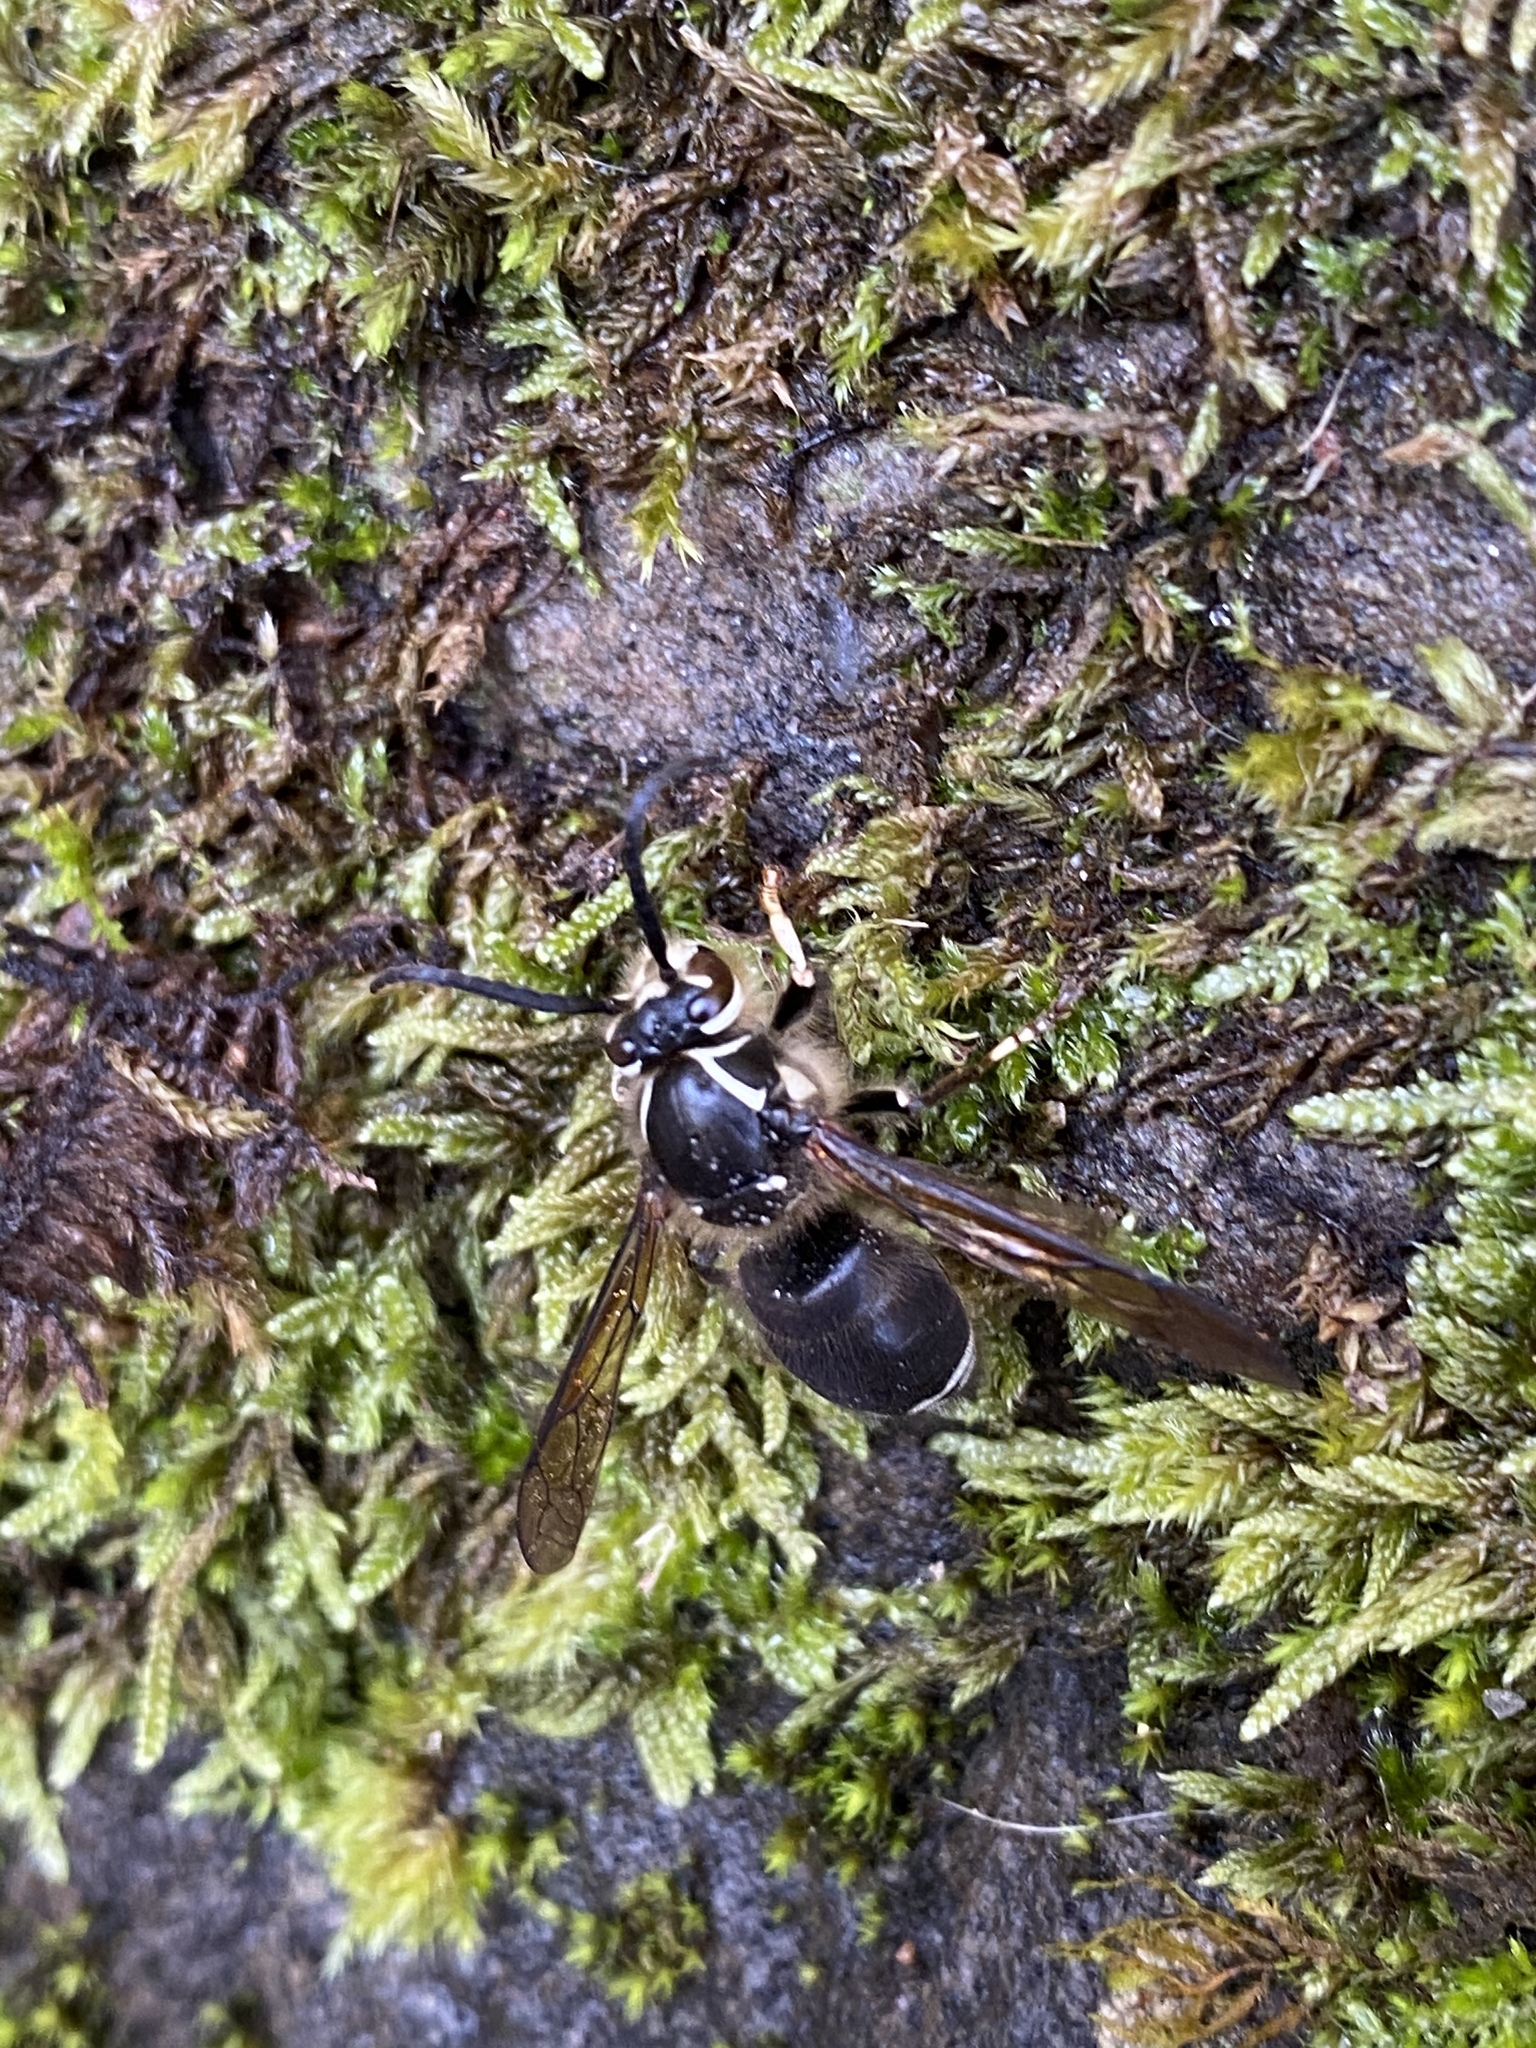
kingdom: Animalia
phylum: Arthropoda
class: Insecta
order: Hymenoptera
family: Vespidae
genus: Dolichovespula
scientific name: Dolichovespula maculata
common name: Bald-faced hornet
